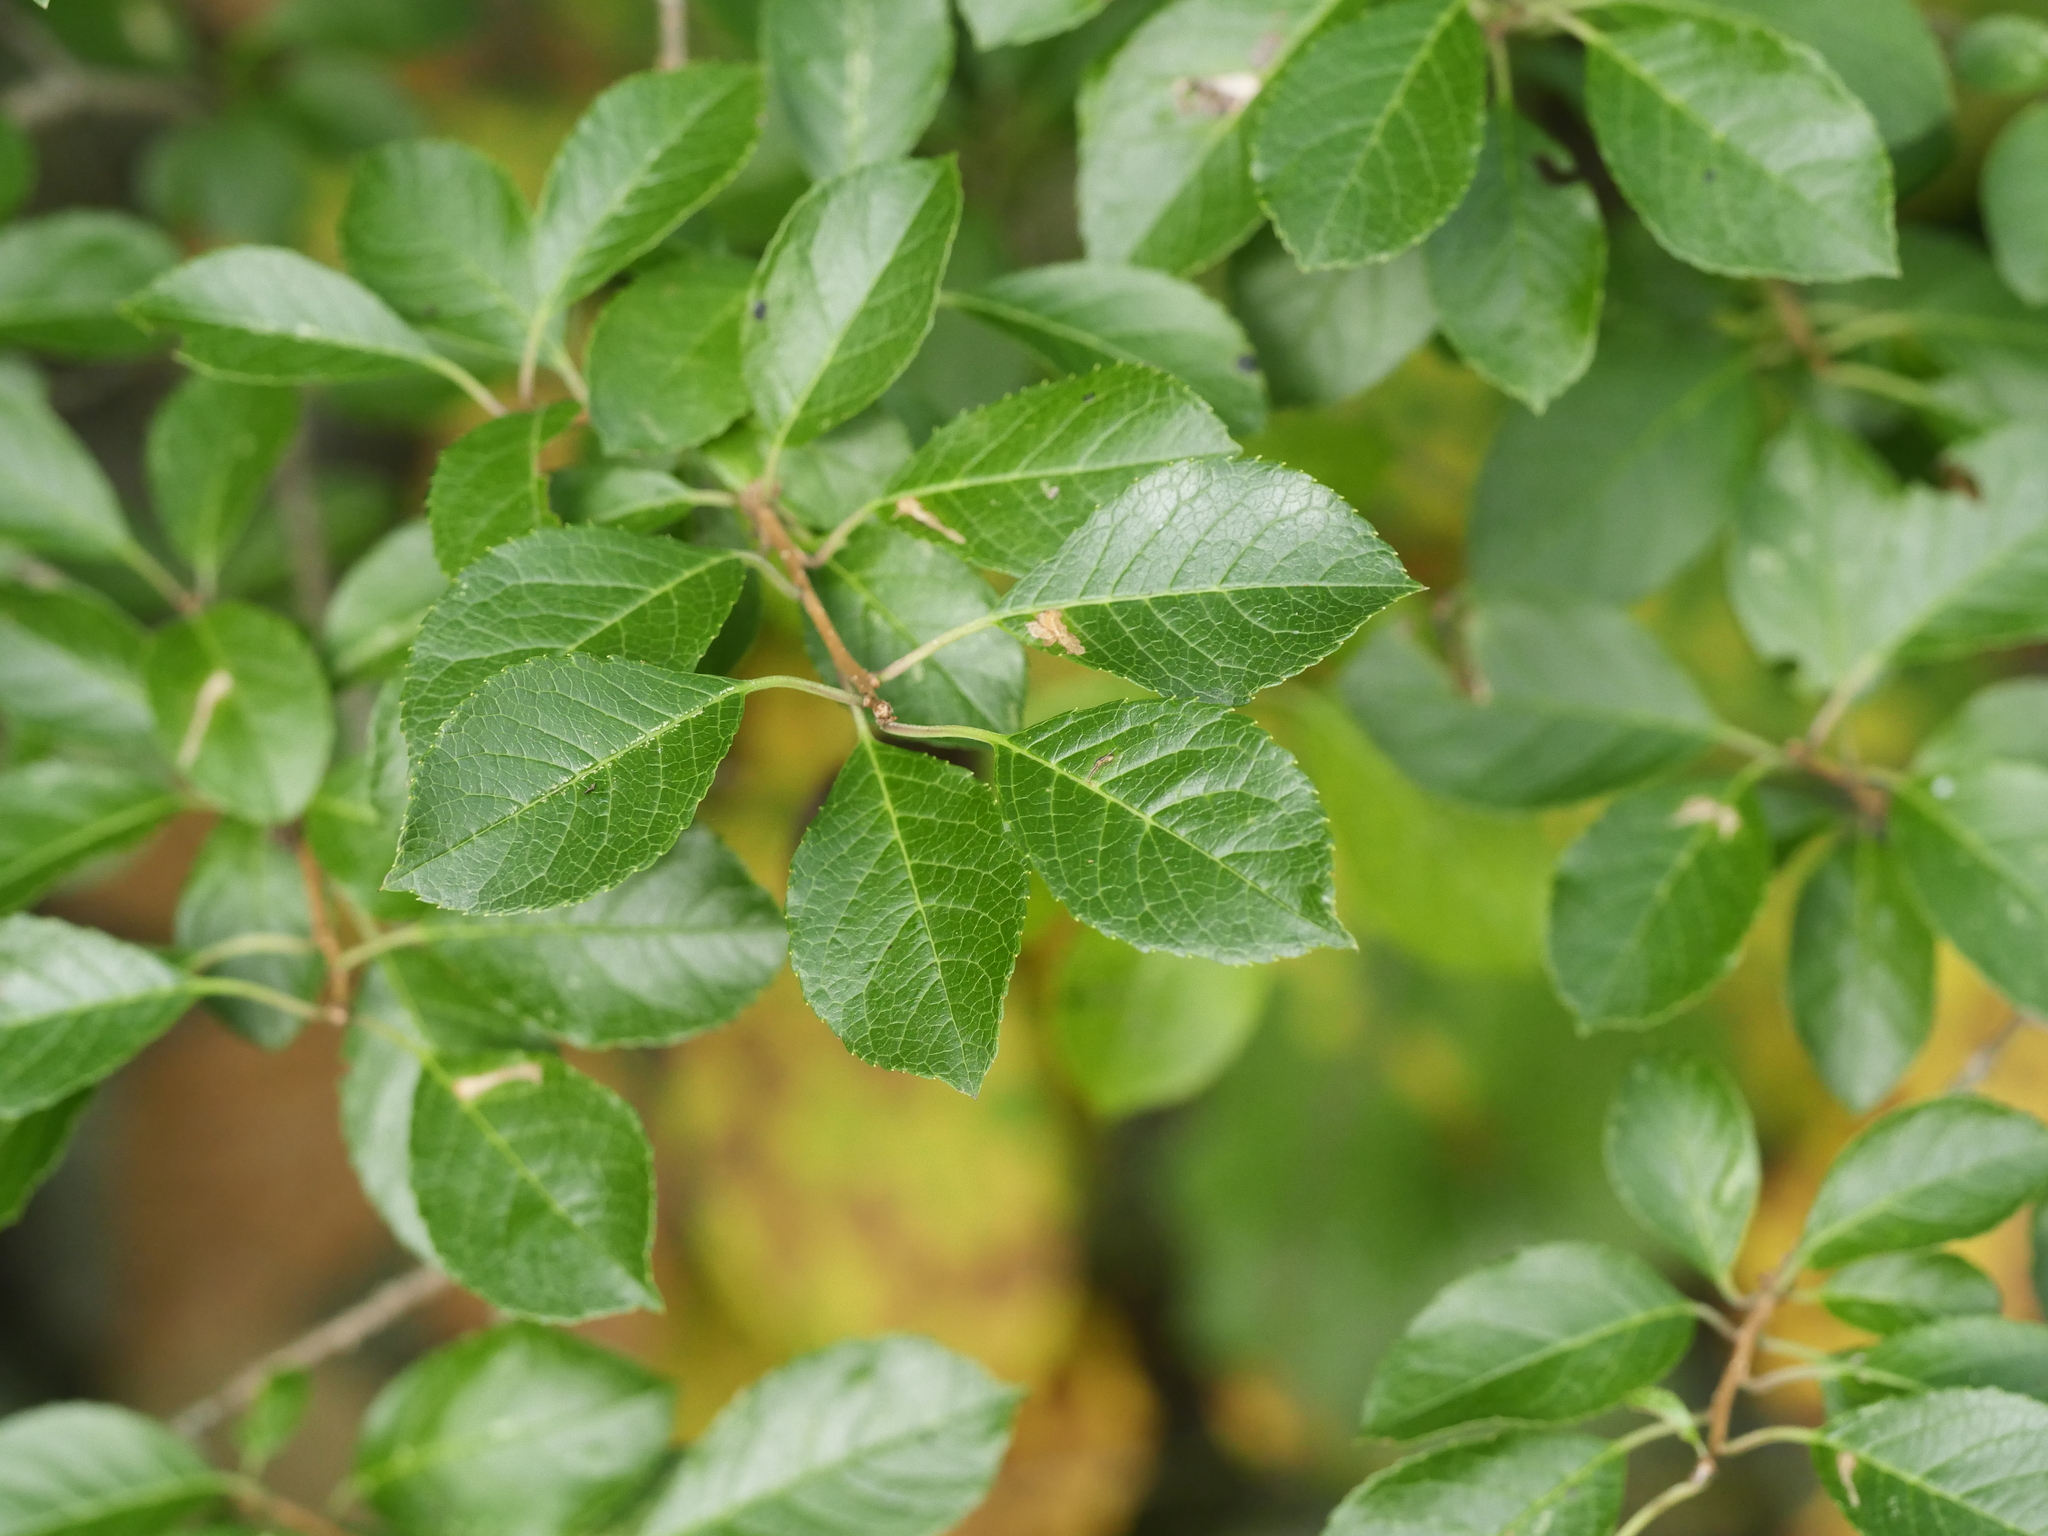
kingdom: Plantae
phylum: Tracheophyta
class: Magnoliopsida
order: Aquifoliales
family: Aquifoliaceae
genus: Ilex
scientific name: Ilex verticillata
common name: Virginia winterberry
